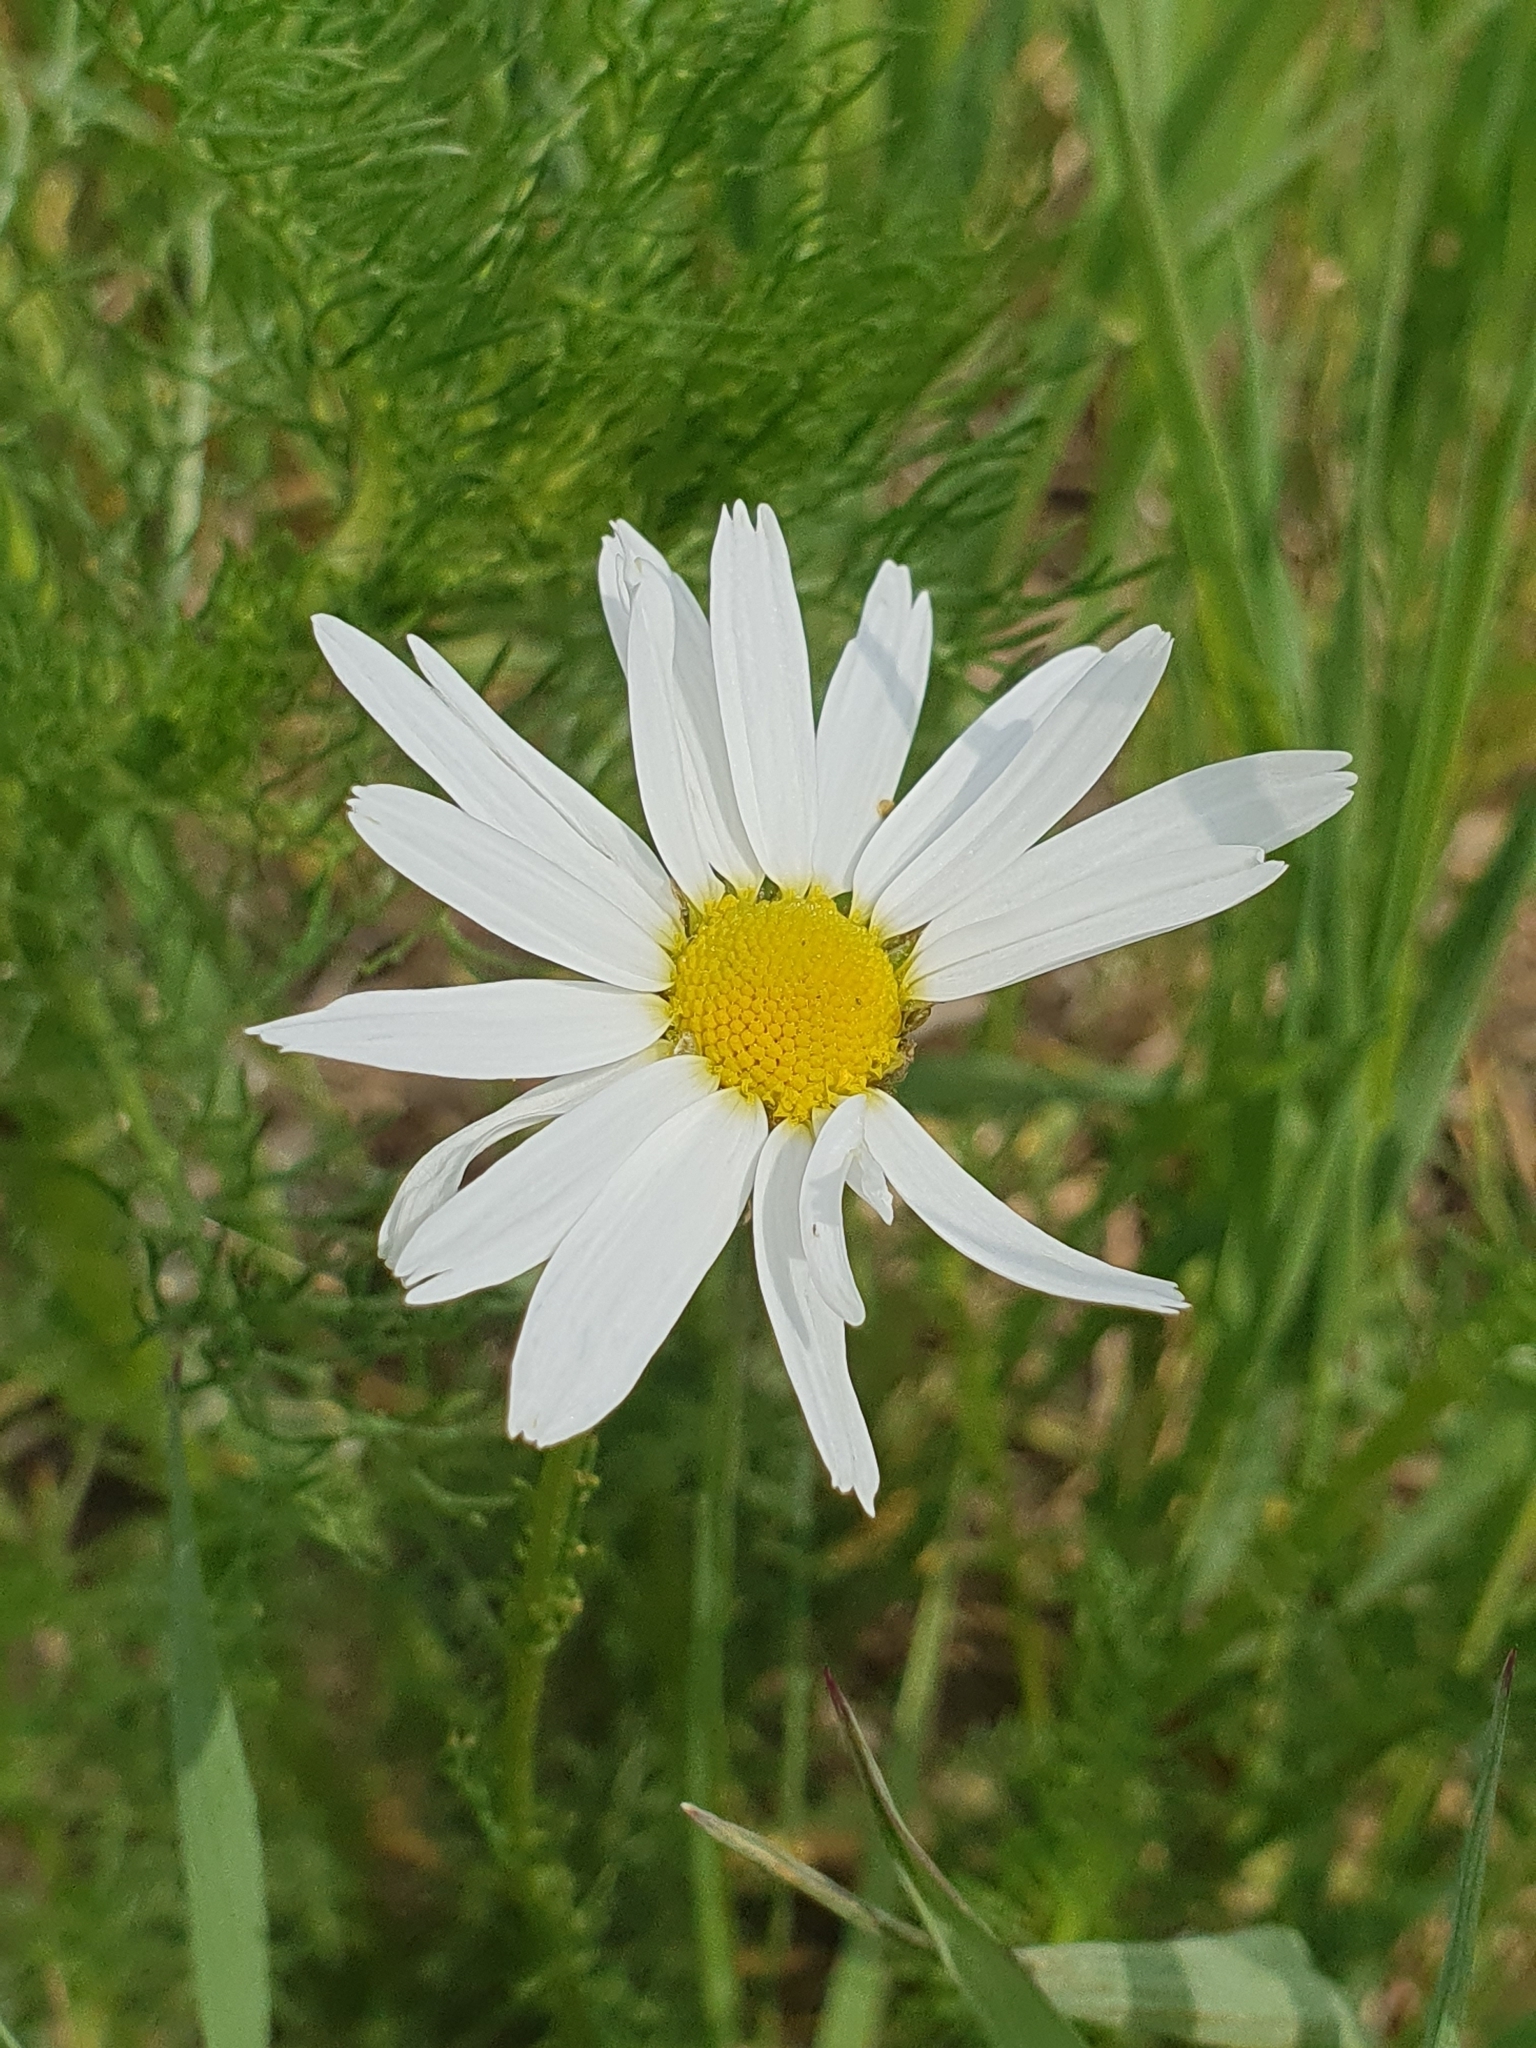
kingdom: Plantae
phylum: Tracheophyta
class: Magnoliopsida
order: Asterales
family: Asteraceae
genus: Tripleurospermum
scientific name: Tripleurospermum inodorum
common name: Scentless mayweed
